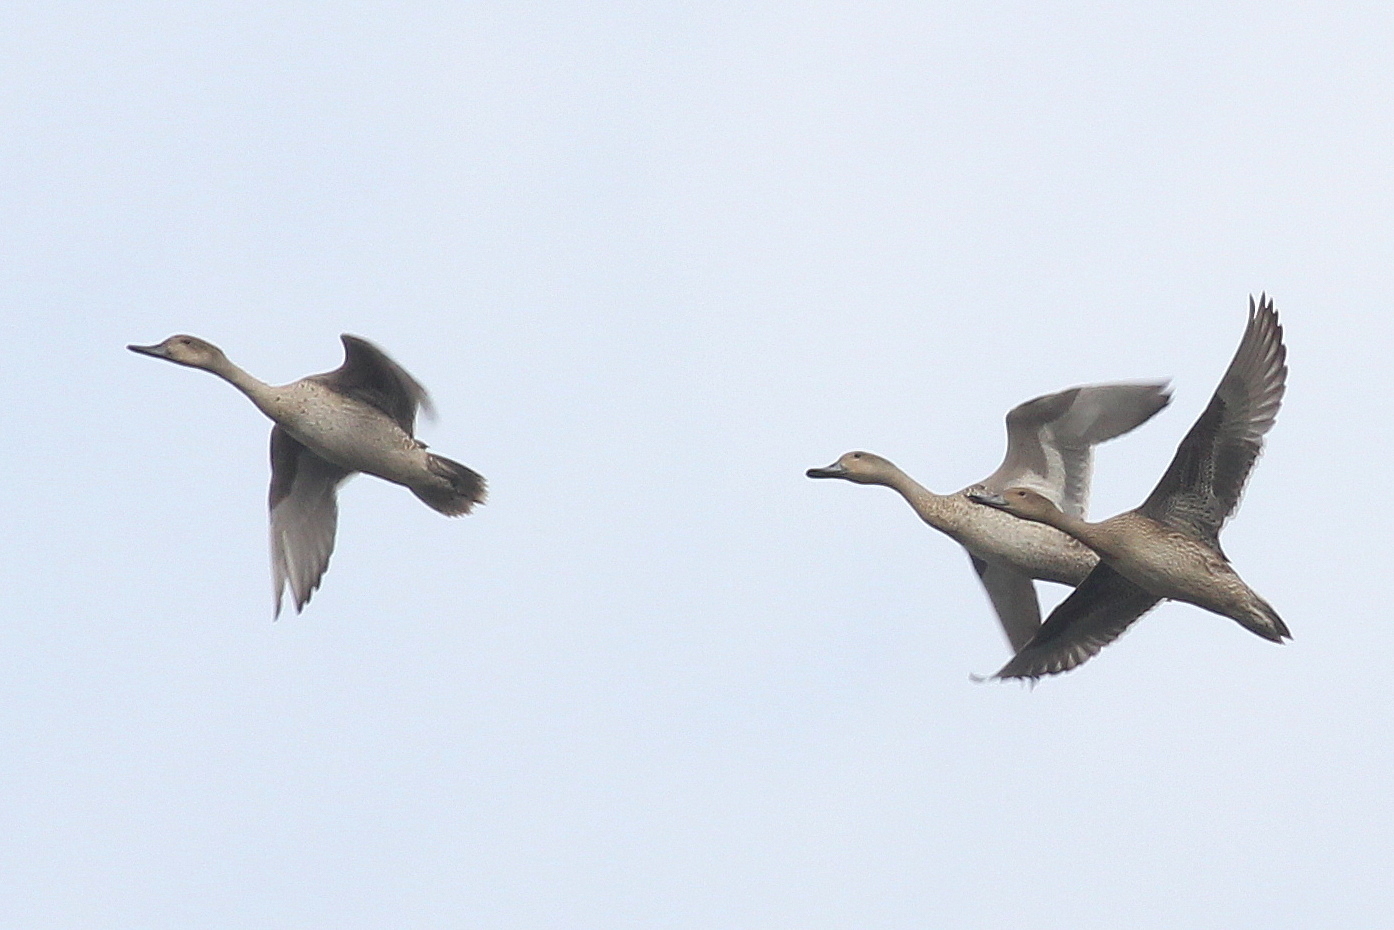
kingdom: Animalia
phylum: Chordata
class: Aves
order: Anseriformes
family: Anatidae
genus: Anas
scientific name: Anas acuta
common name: Northern pintail
